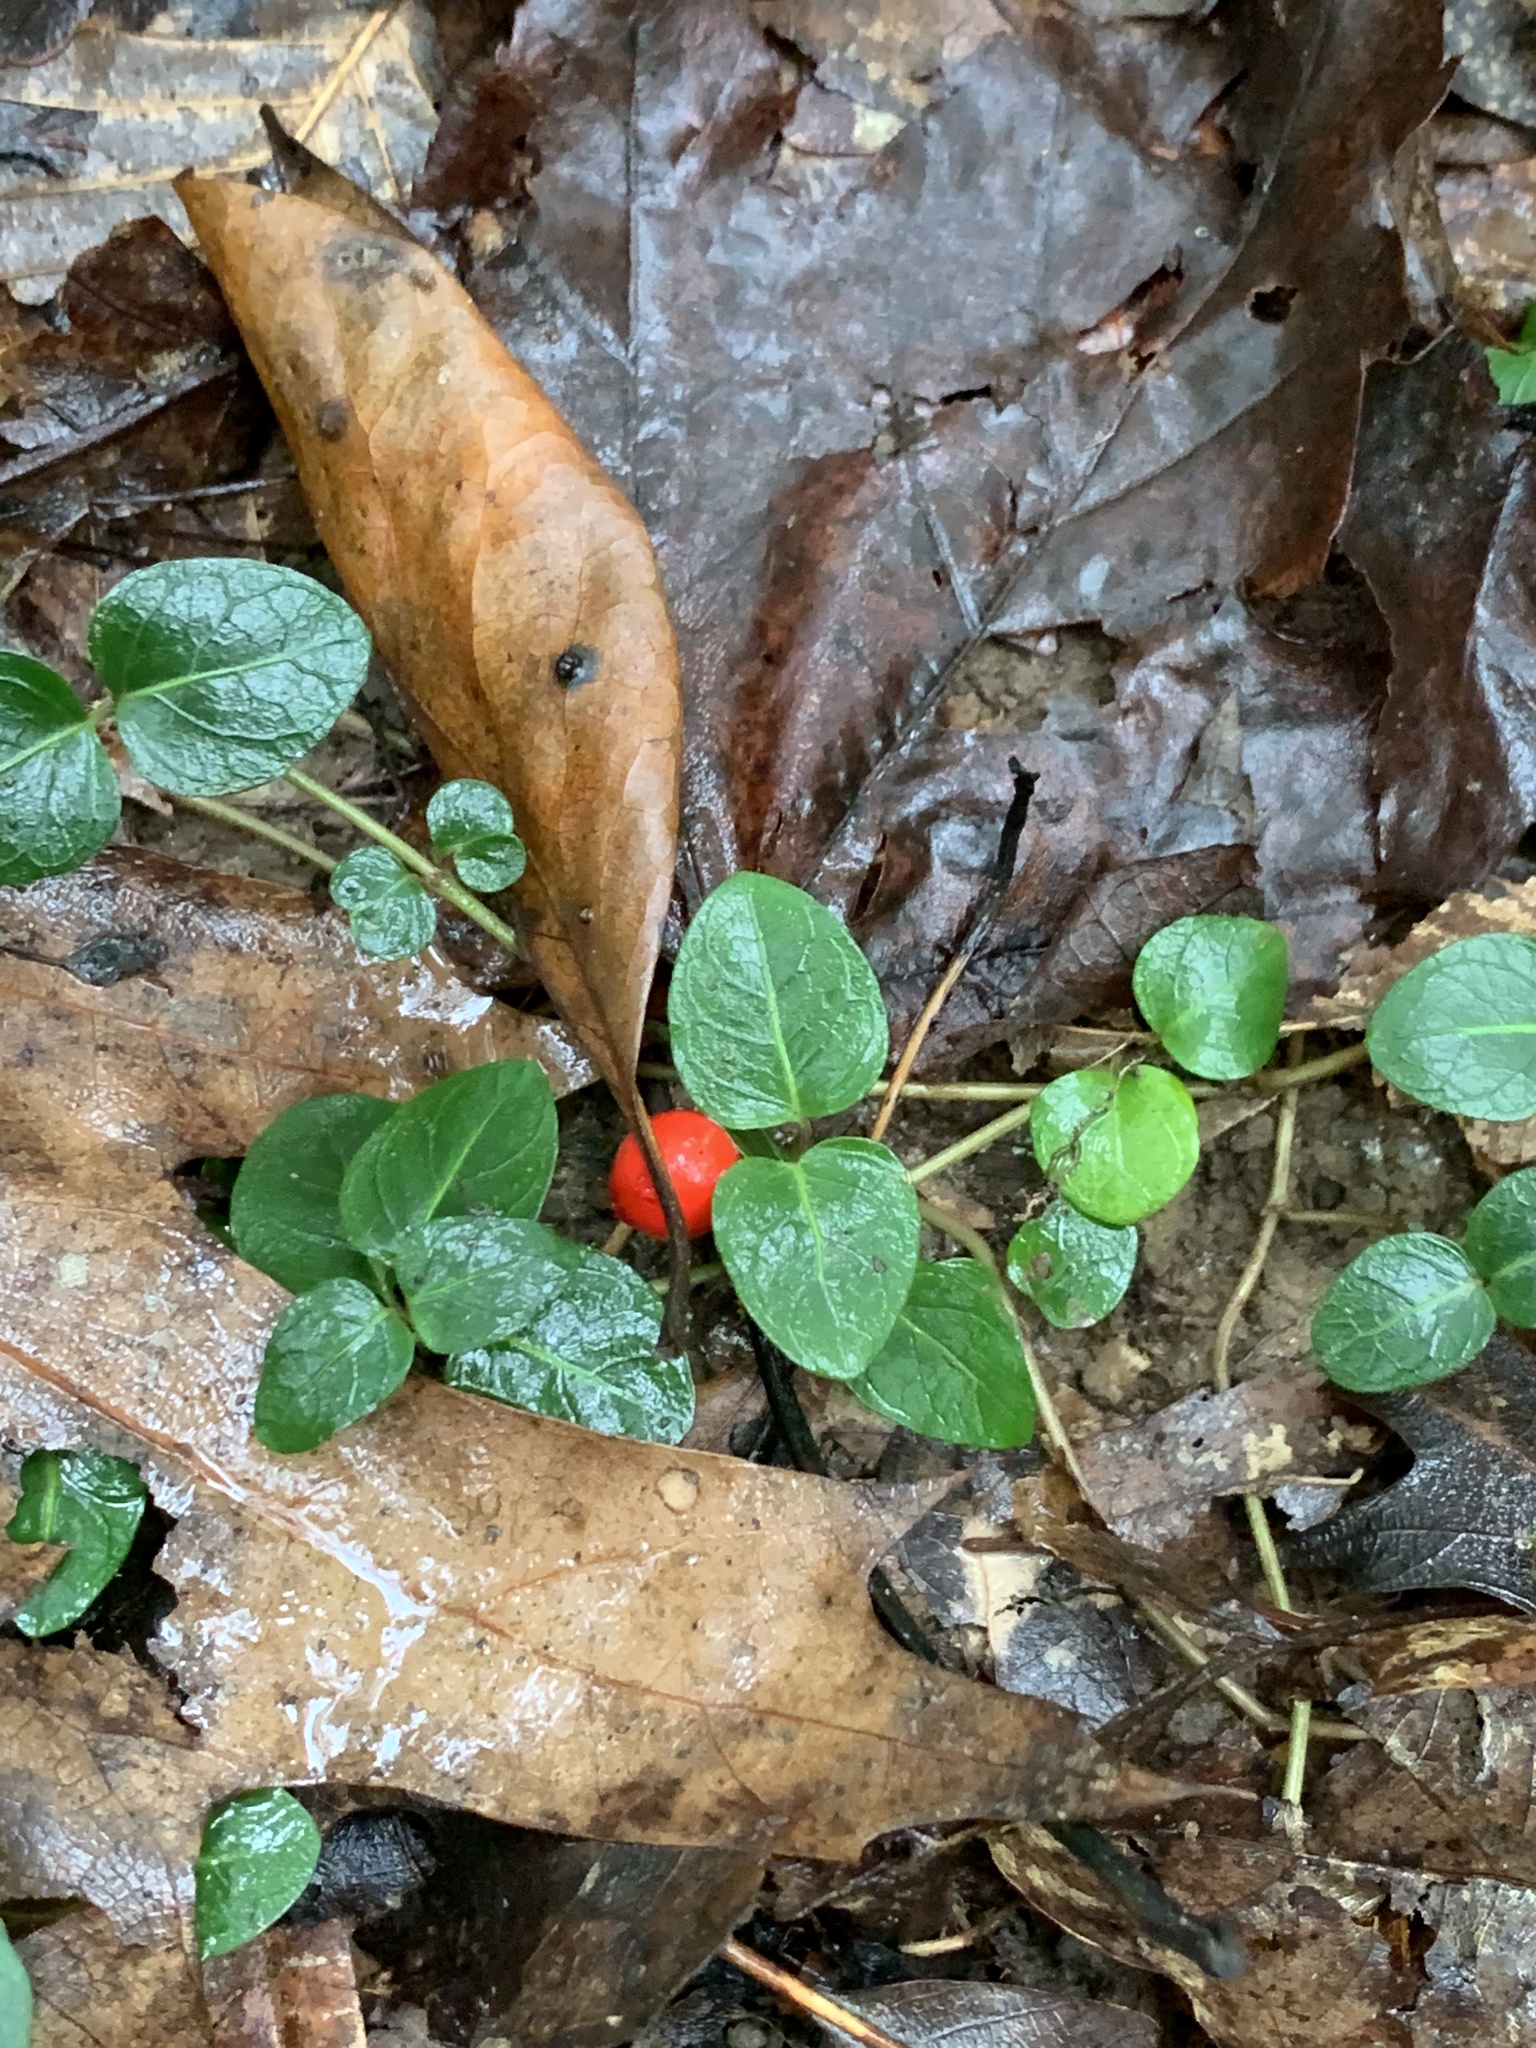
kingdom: Plantae
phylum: Tracheophyta
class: Magnoliopsida
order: Gentianales
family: Rubiaceae
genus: Mitchella
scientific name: Mitchella repens
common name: Partridge-berry
